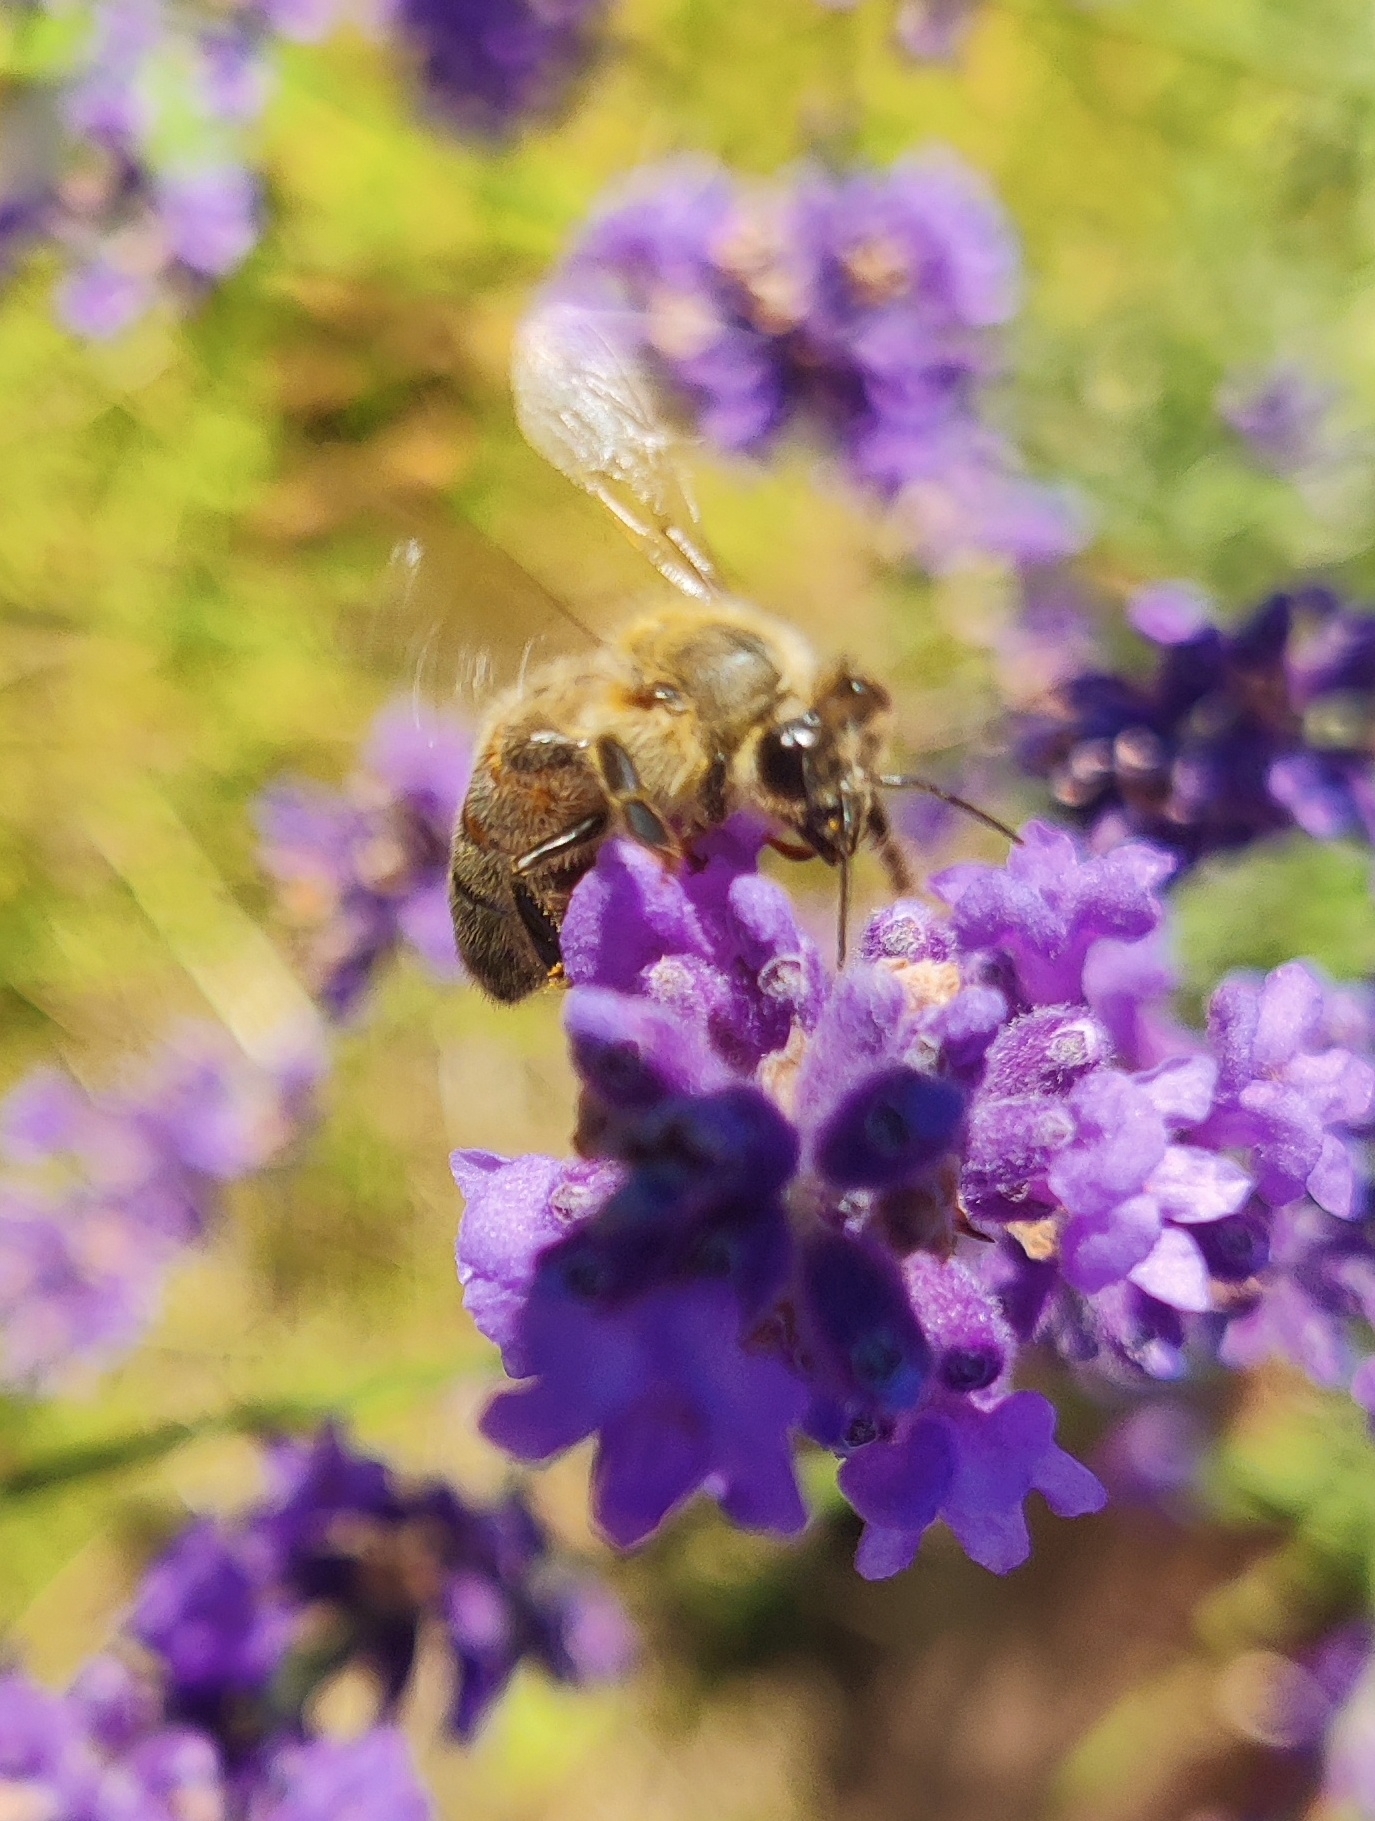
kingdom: Animalia
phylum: Arthropoda
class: Insecta
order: Hymenoptera
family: Apidae
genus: Apis
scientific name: Apis mellifera
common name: Honey bee
